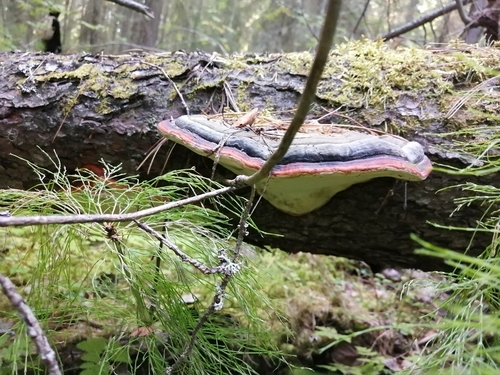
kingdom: Fungi
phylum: Basidiomycota
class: Agaricomycetes
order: Polyporales
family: Fomitopsidaceae
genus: Fomitopsis
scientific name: Fomitopsis pinicola
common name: Red-belted bracket
